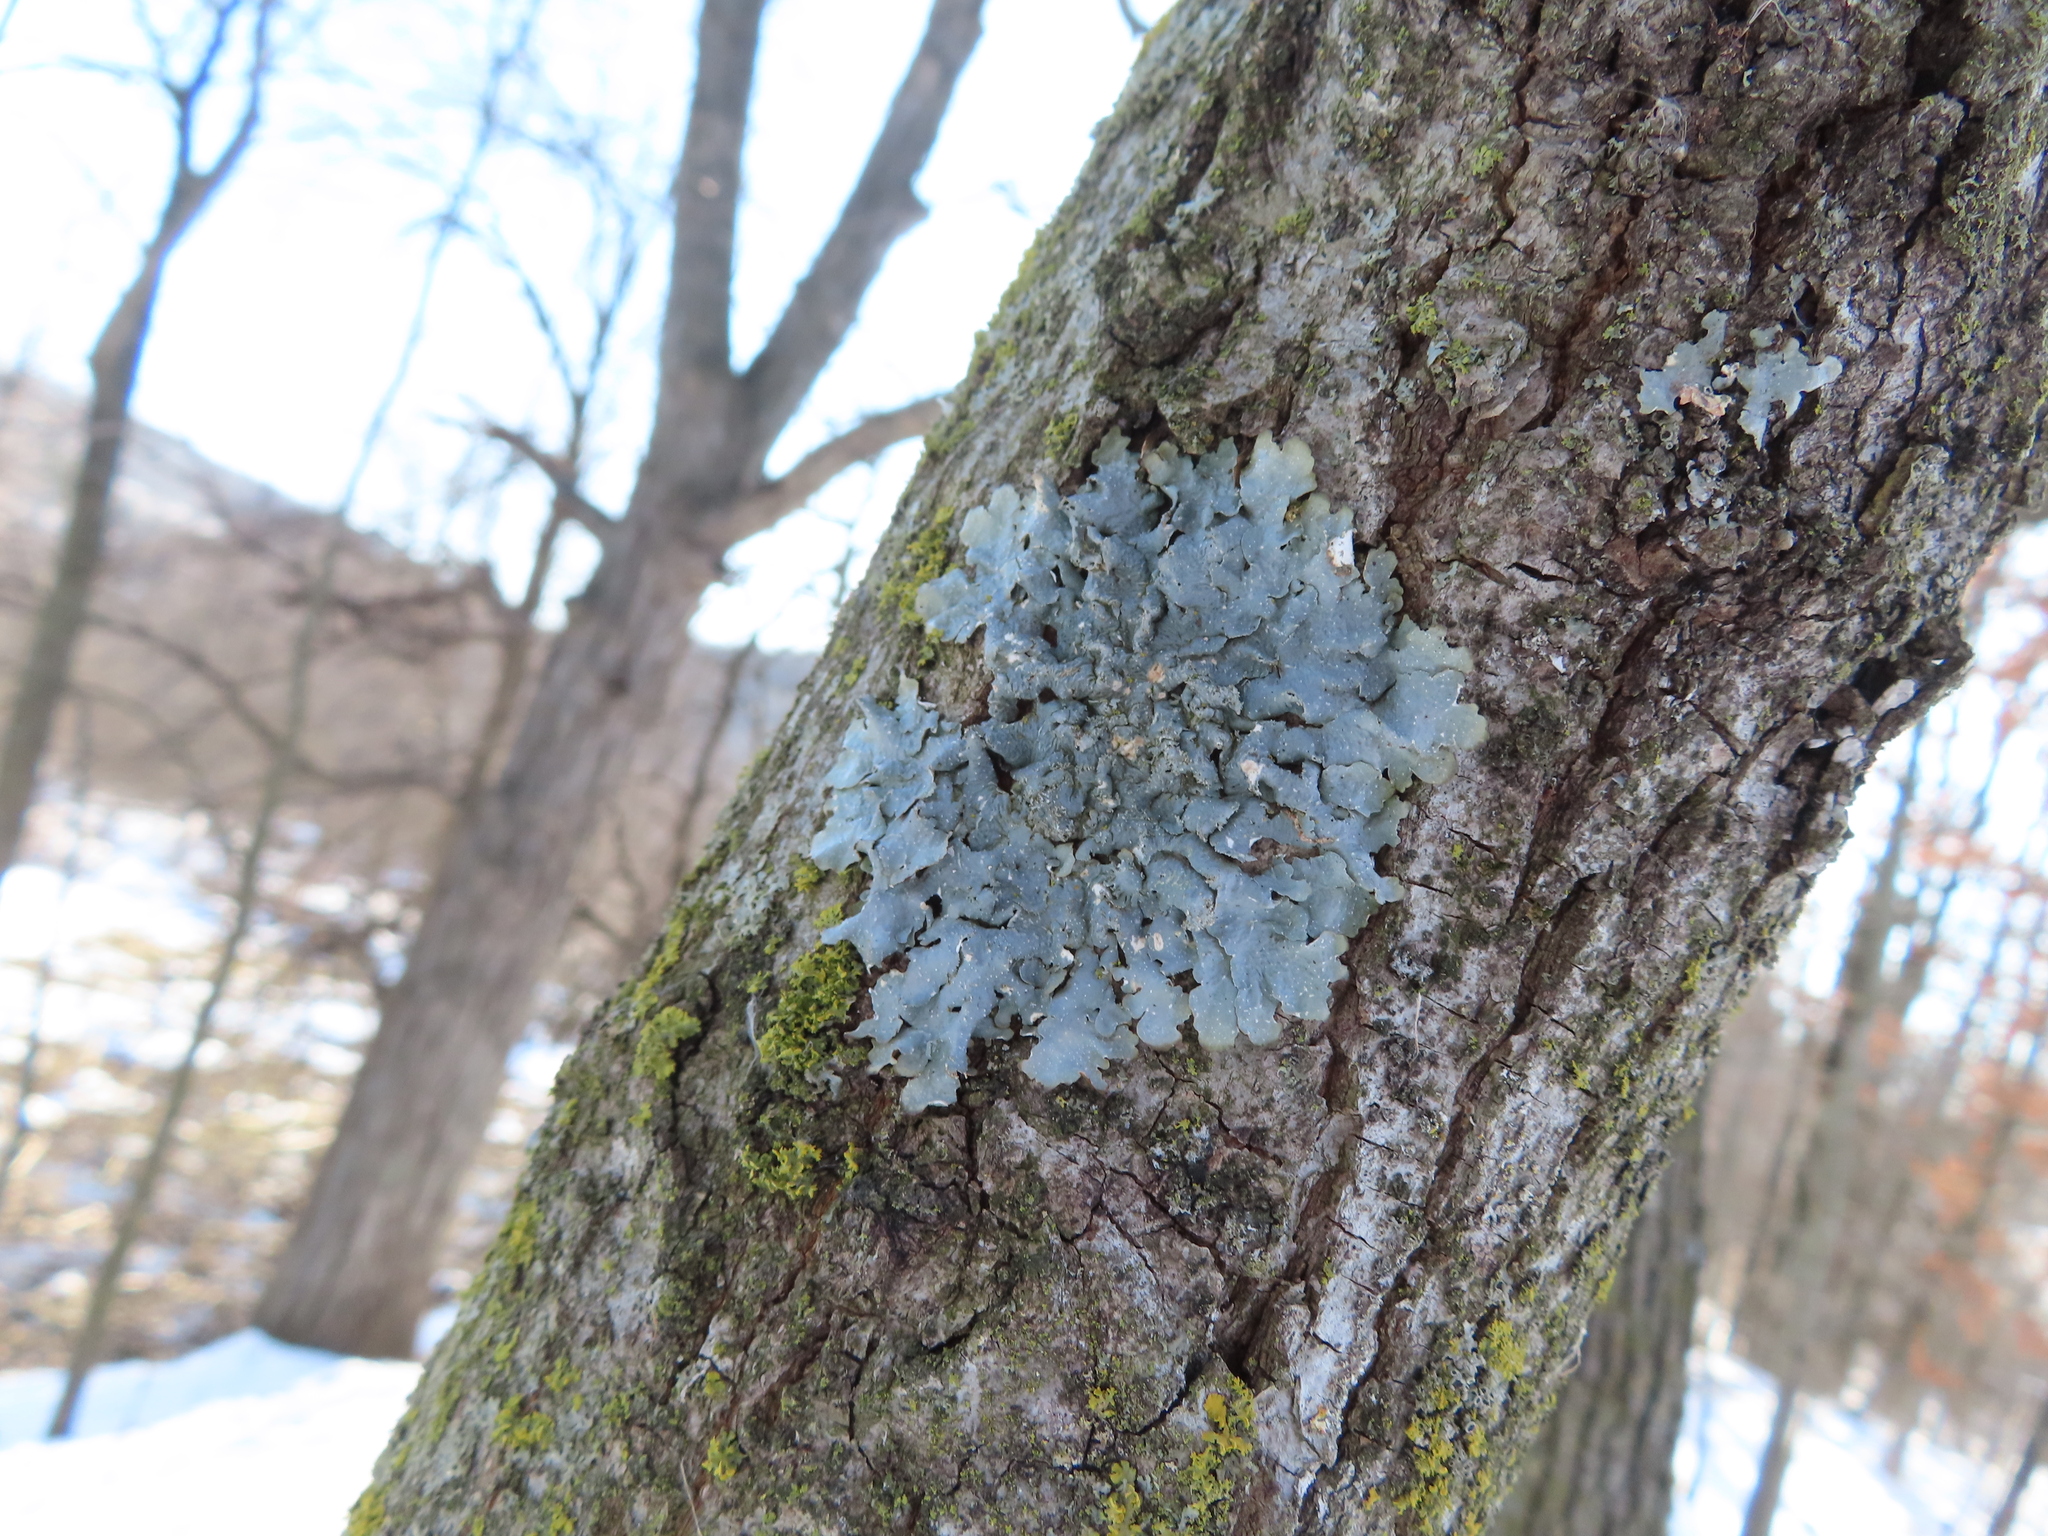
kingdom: Fungi
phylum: Ascomycota
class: Lecanoromycetes
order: Lecanorales
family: Parmeliaceae
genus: Punctelia
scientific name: Punctelia rudecta
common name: Rough speckled shield lichen
